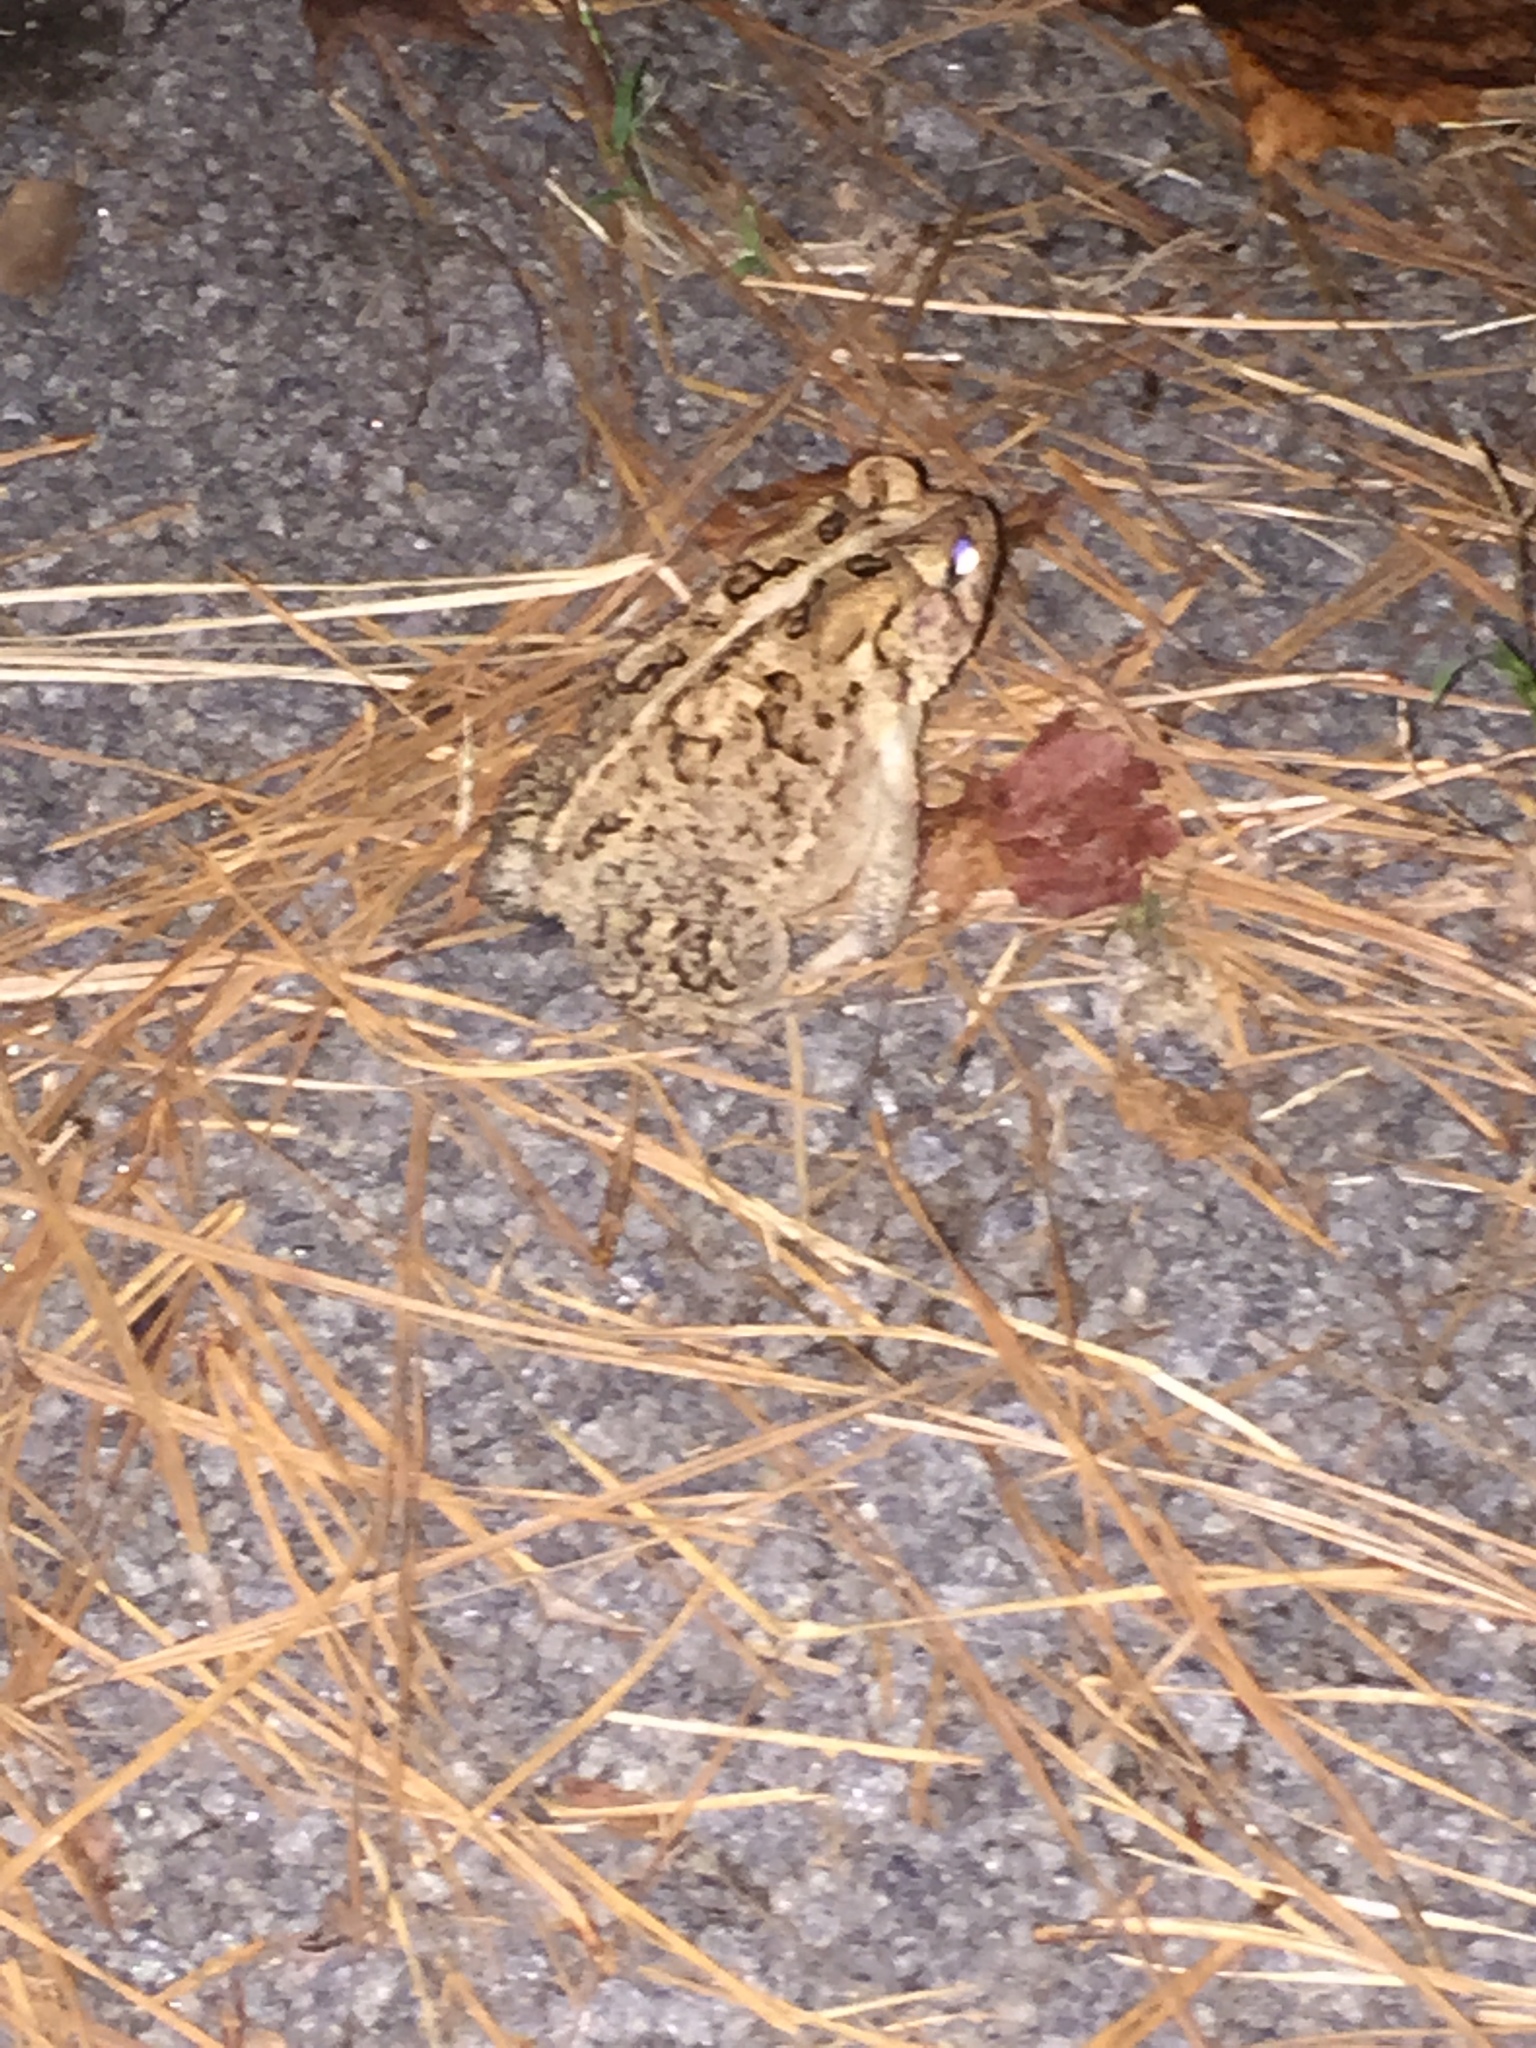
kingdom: Animalia
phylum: Chordata
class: Amphibia
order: Anura
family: Bufonidae
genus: Anaxyrus
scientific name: Anaxyrus americanus
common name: American toad
